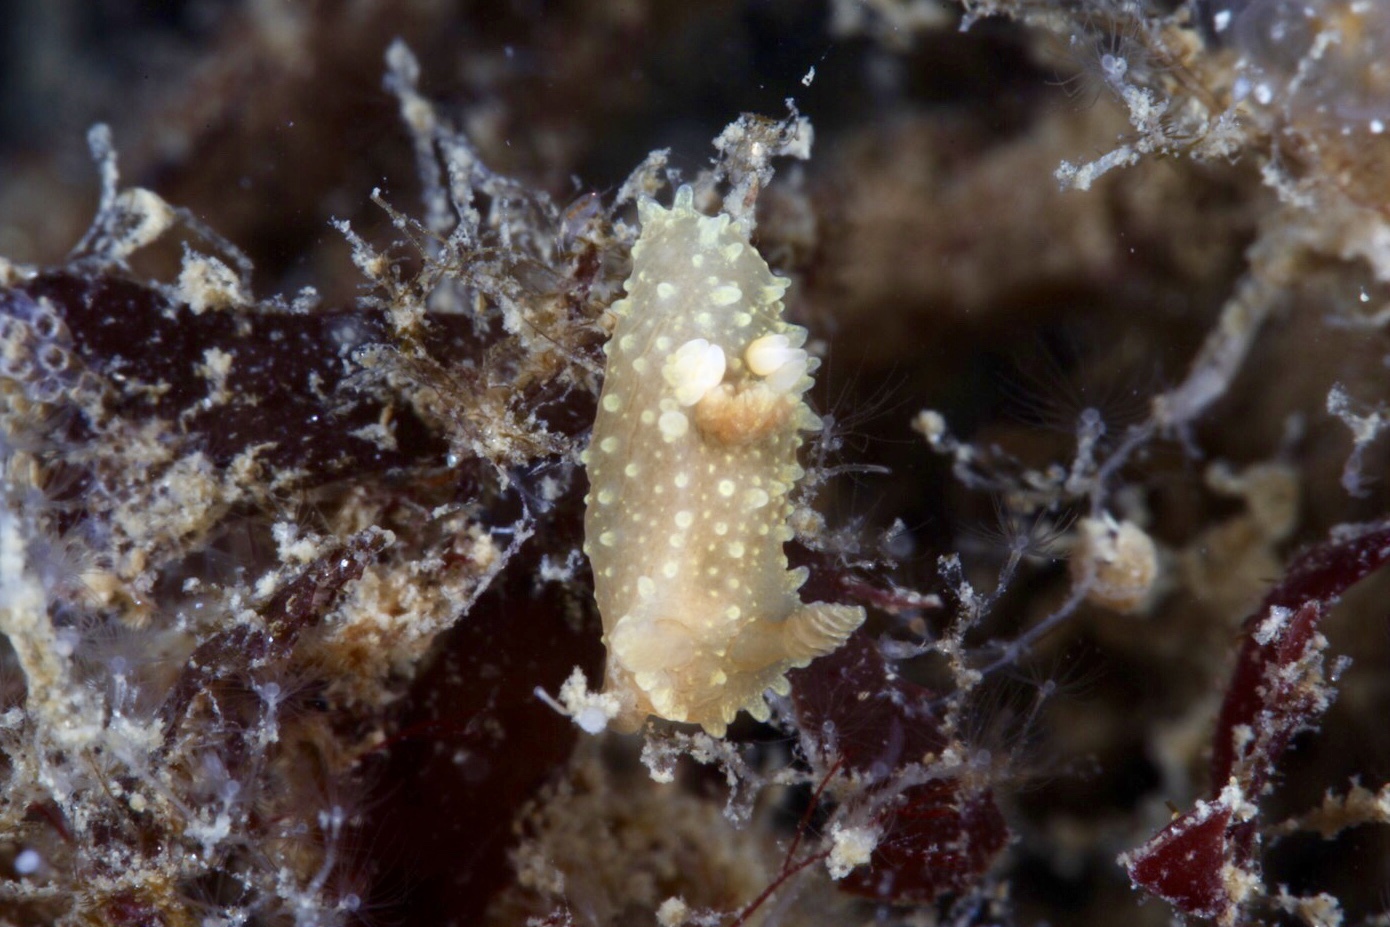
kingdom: Animalia
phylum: Mollusca
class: Gastropoda
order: Nudibranchia
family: Polyceridae
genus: Palio
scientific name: Palio dubia
